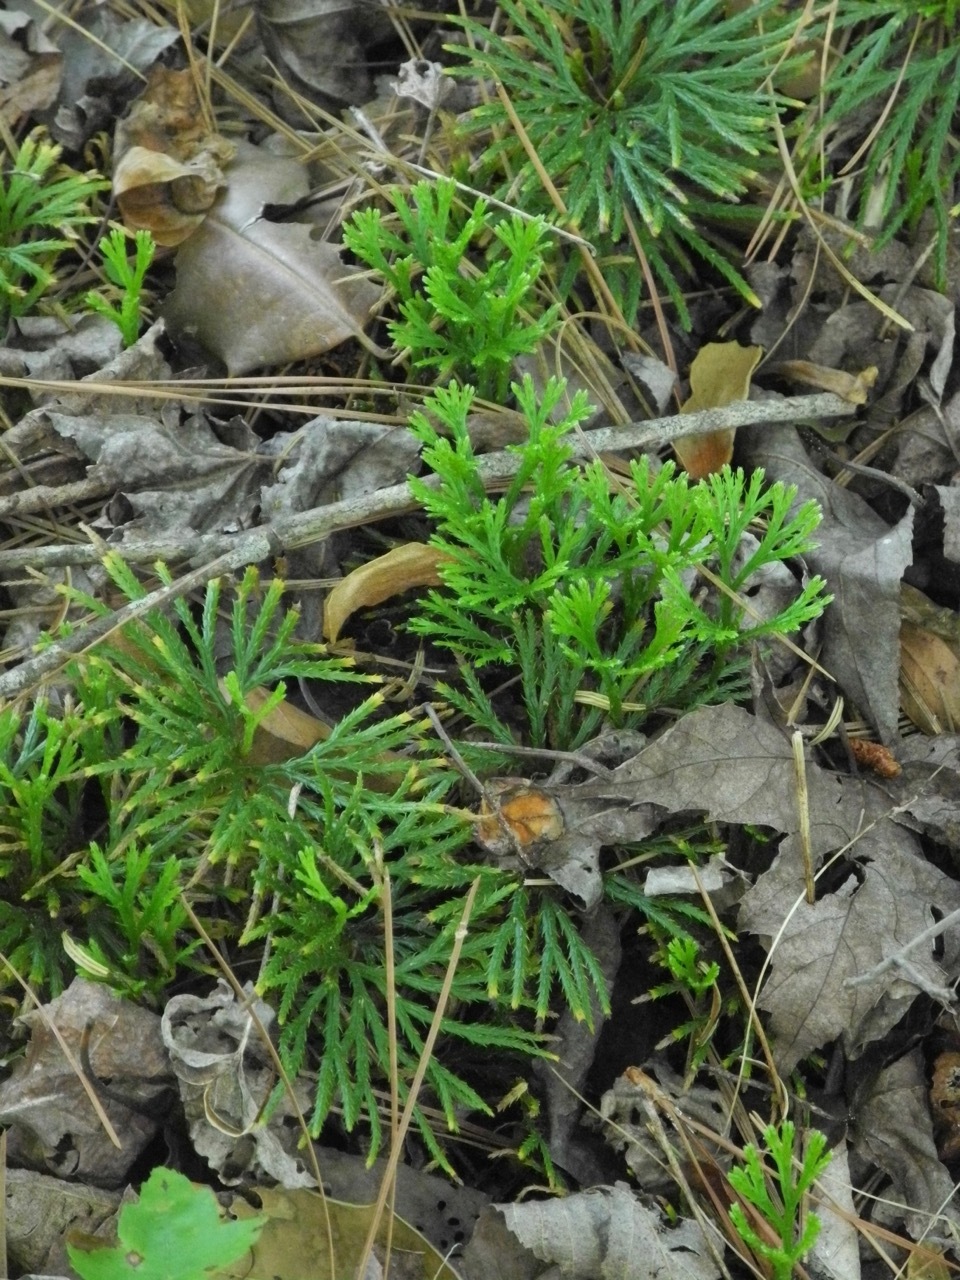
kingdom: Plantae
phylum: Tracheophyta
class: Lycopodiopsida
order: Lycopodiales
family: Lycopodiaceae
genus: Diphasiastrum
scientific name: Diphasiastrum digitatum
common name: Southern running-pine
